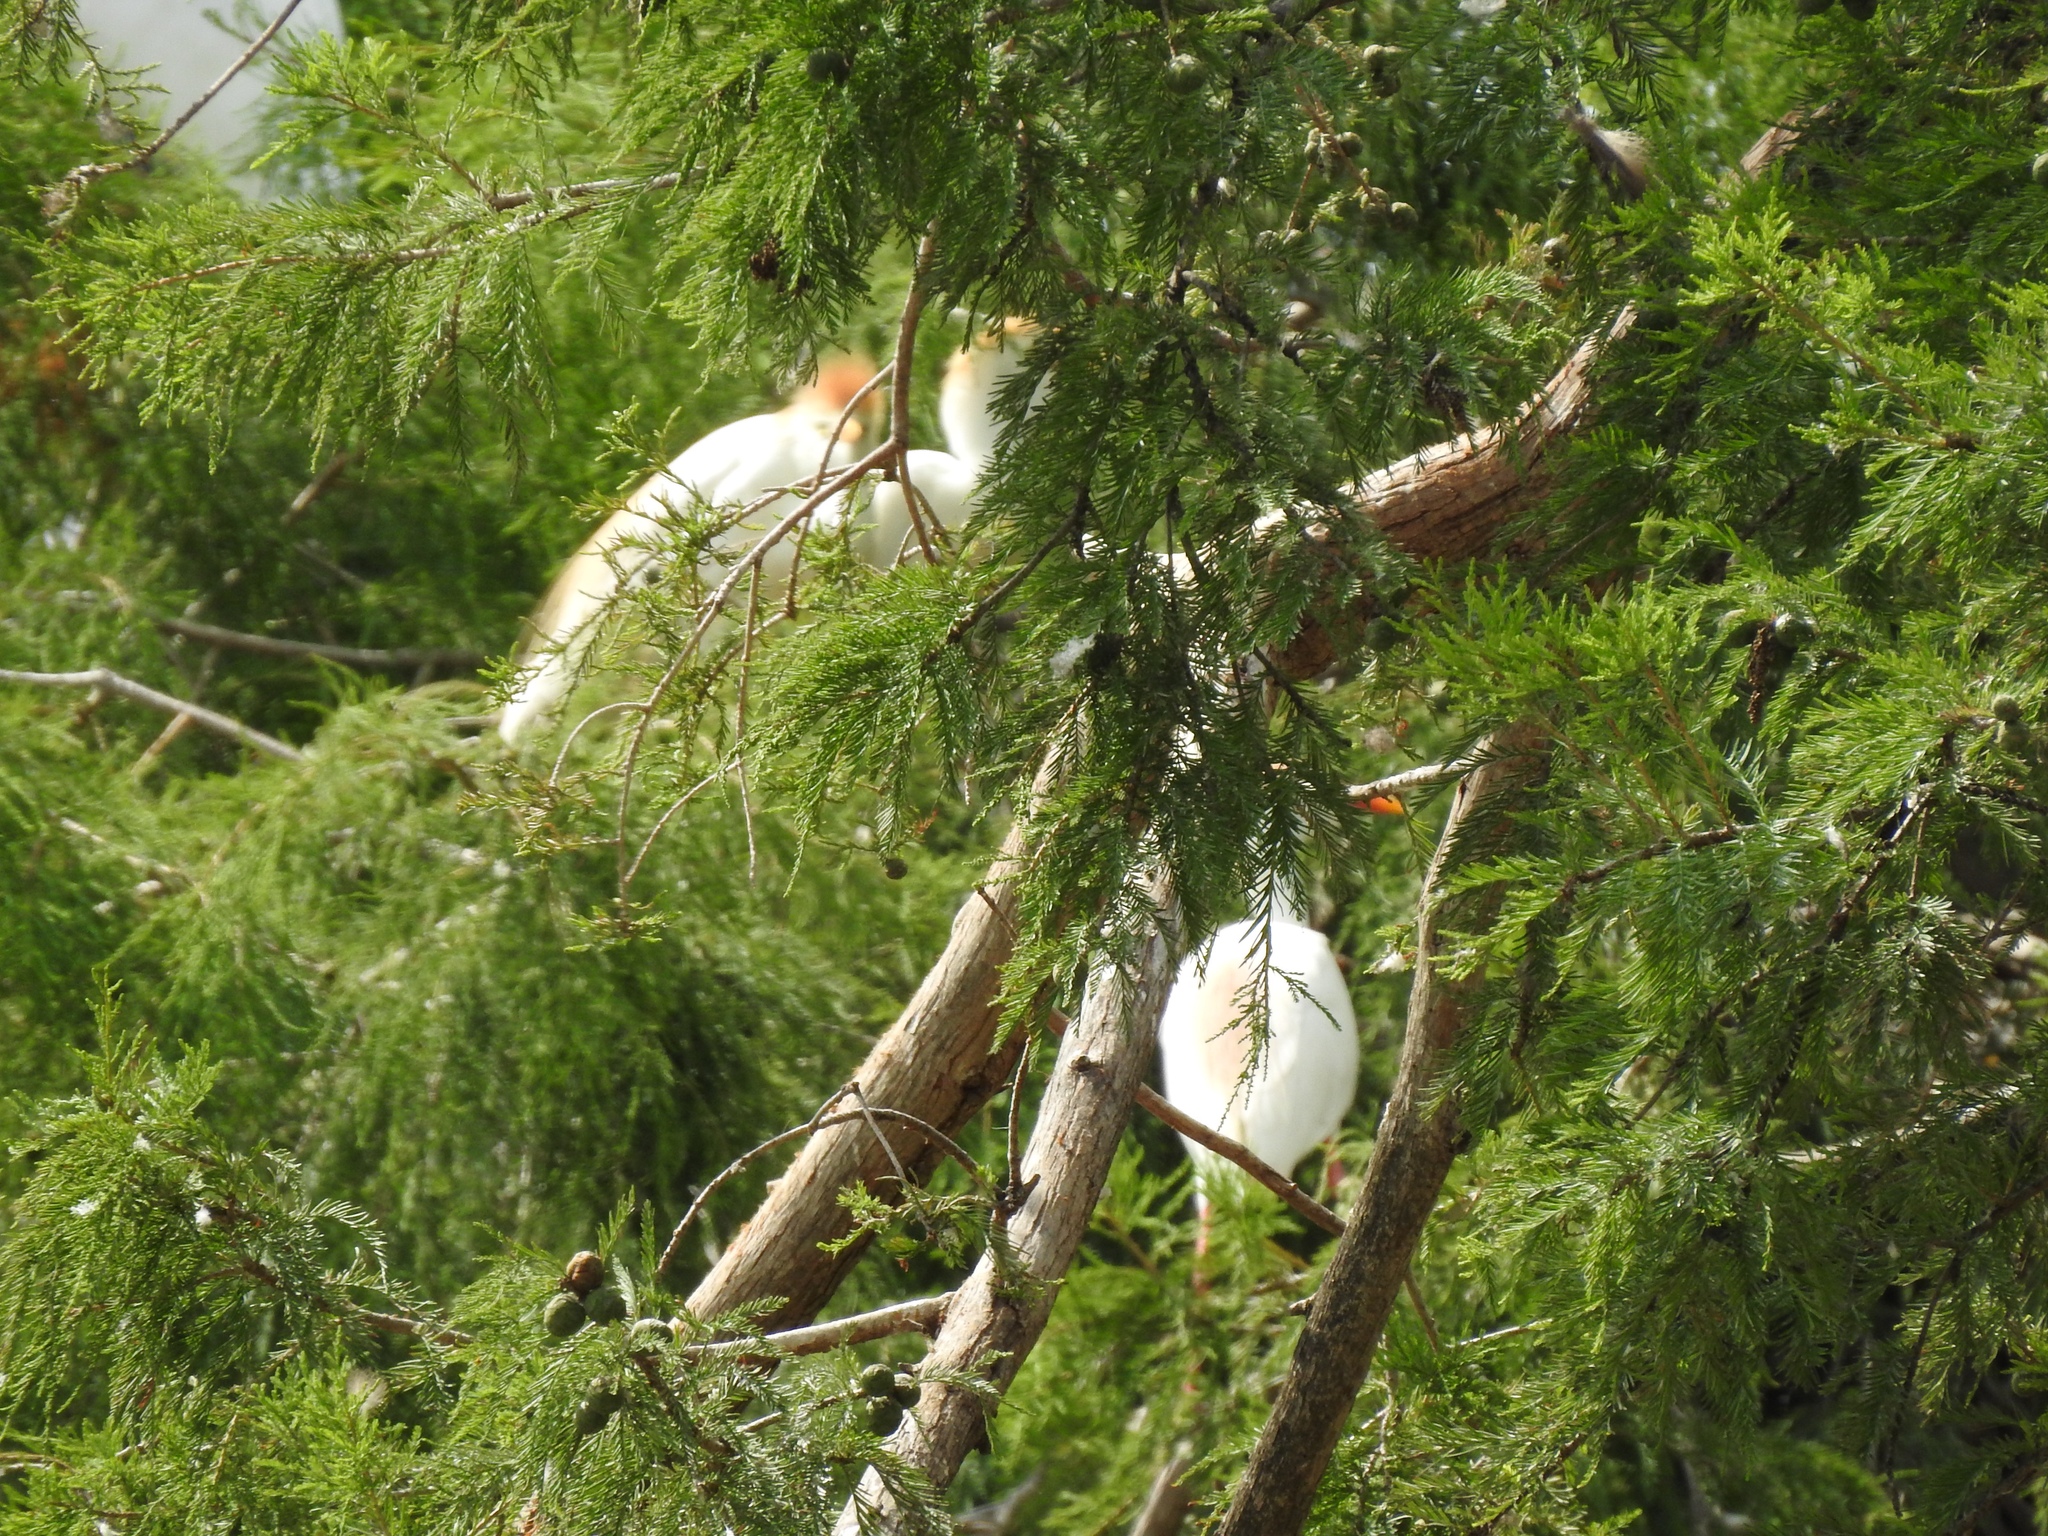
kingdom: Animalia
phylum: Chordata
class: Aves
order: Pelecaniformes
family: Ardeidae
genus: Bubulcus
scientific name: Bubulcus ibis
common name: Cattle egret
